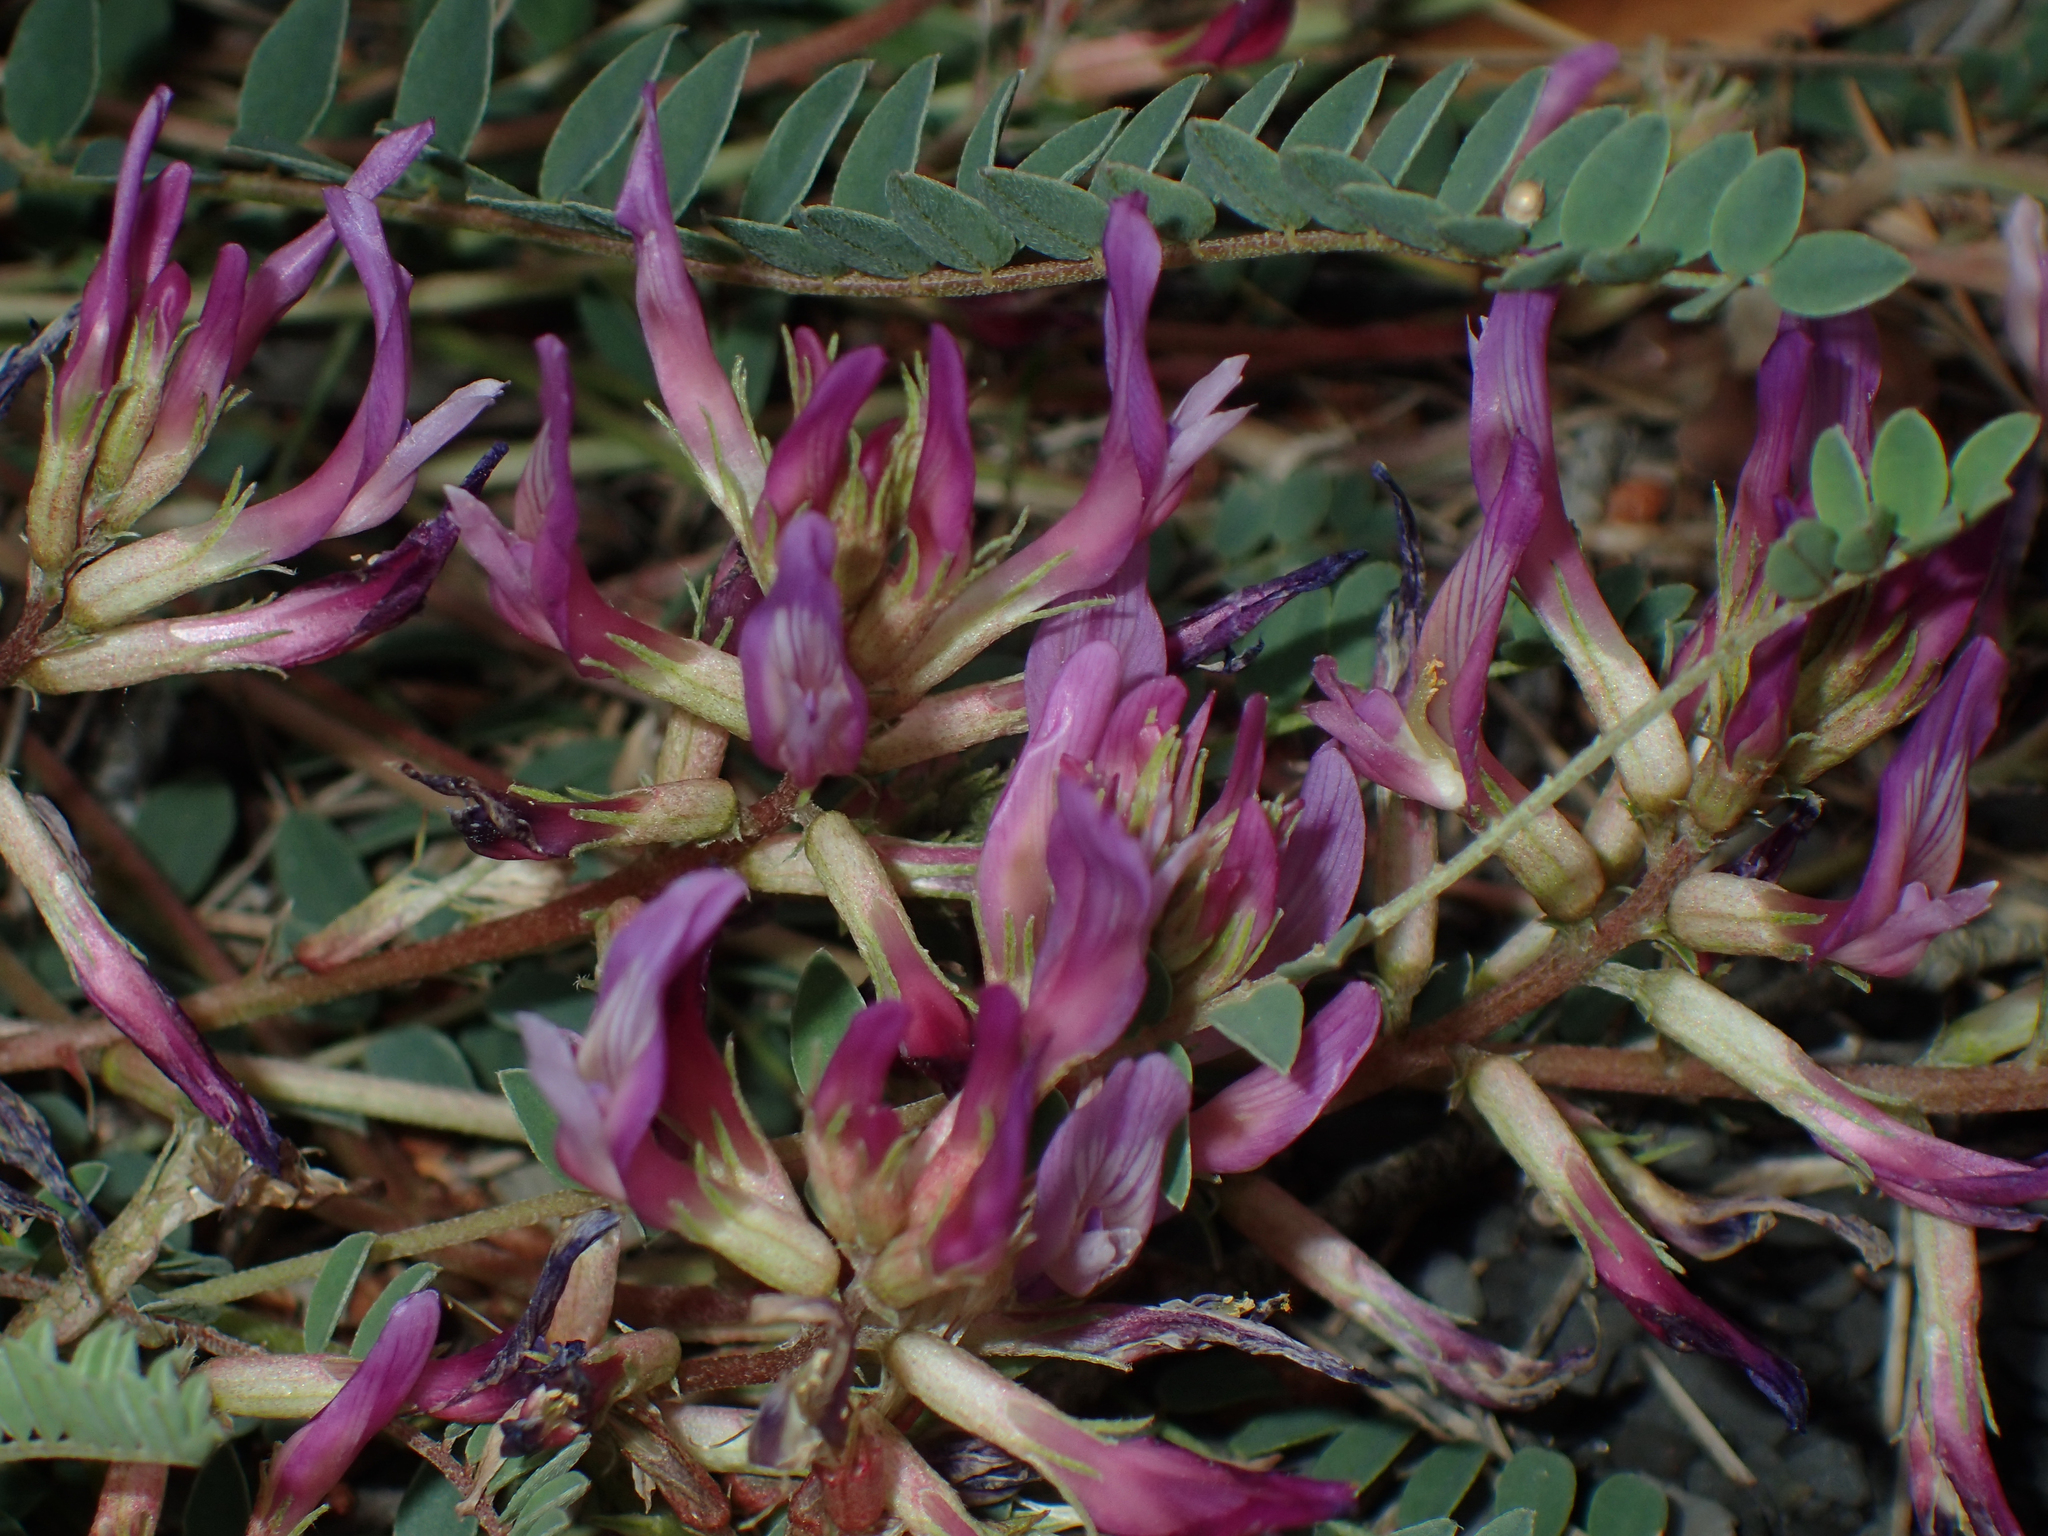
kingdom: Plantae
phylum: Tracheophyta
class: Magnoliopsida
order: Fabales
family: Fabaceae
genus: Astragalus
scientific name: Astragalus monspessulanus
